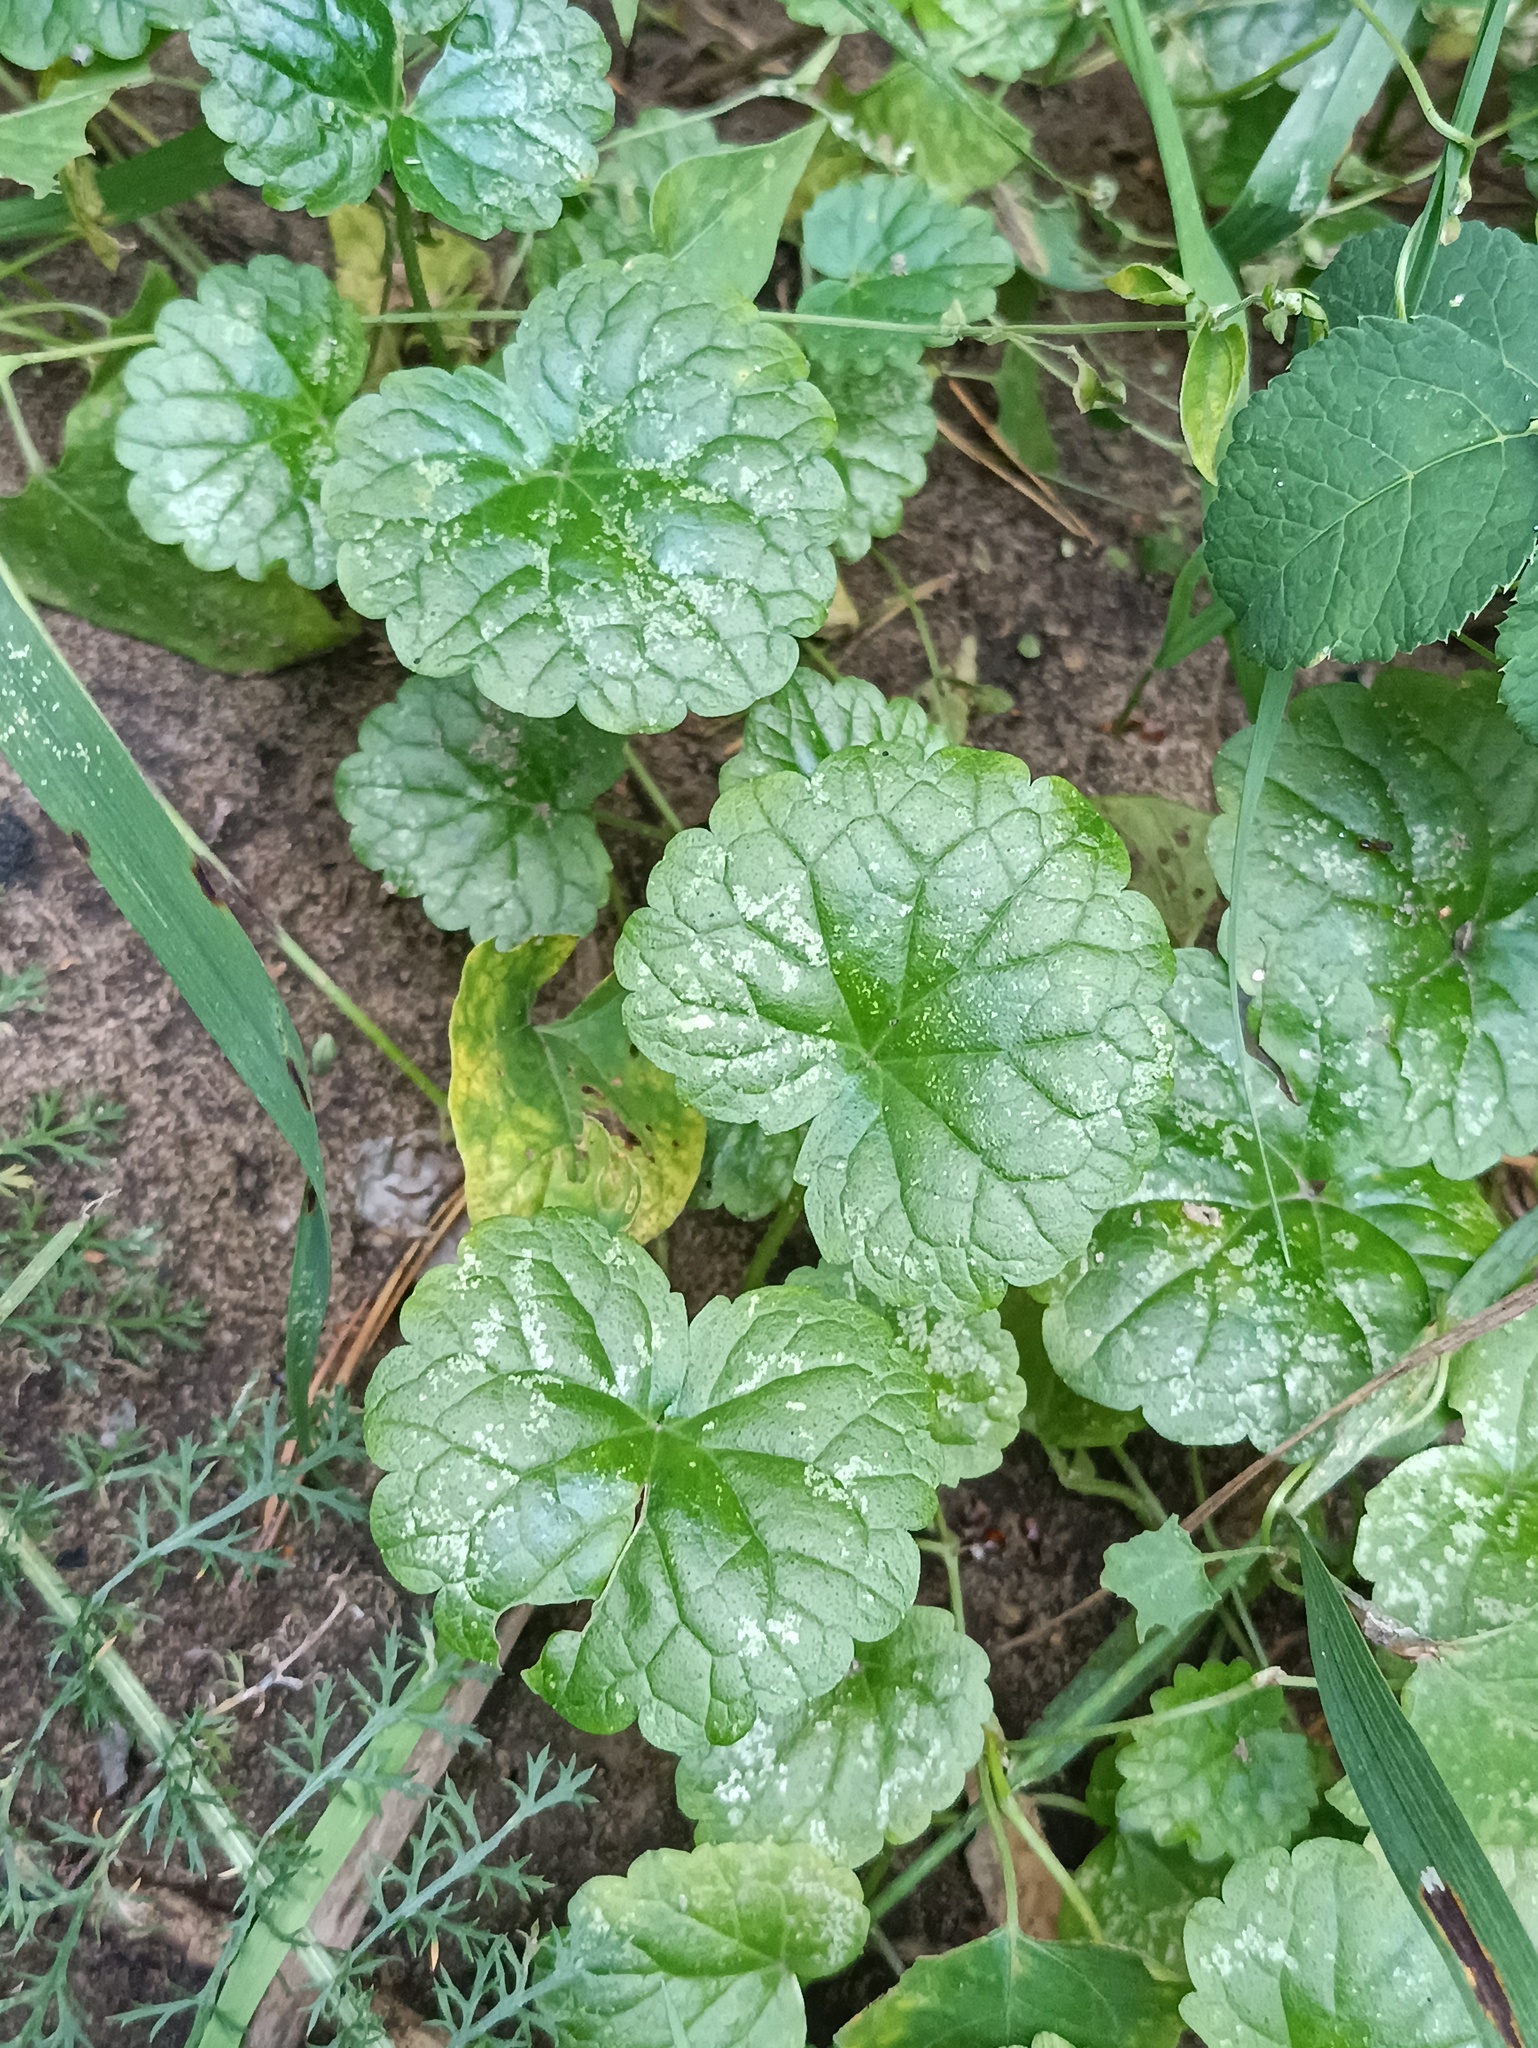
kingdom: Plantae
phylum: Tracheophyta
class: Magnoliopsida
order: Lamiales
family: Lamiaceae
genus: Glechoma
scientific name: Glechoma hederacea
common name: Ground ivy
